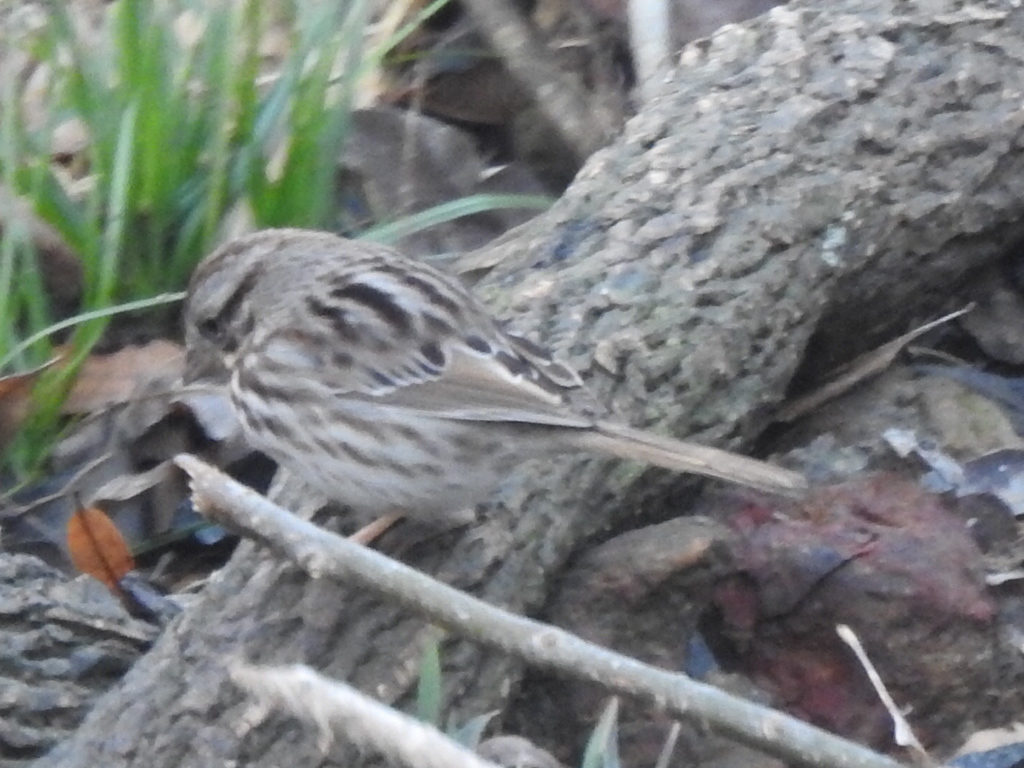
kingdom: Animalia
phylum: Chordata
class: Aves
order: Passeriformes
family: Passerellidae
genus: Melospiza
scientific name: Melospiza melodia
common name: Song sparrow
